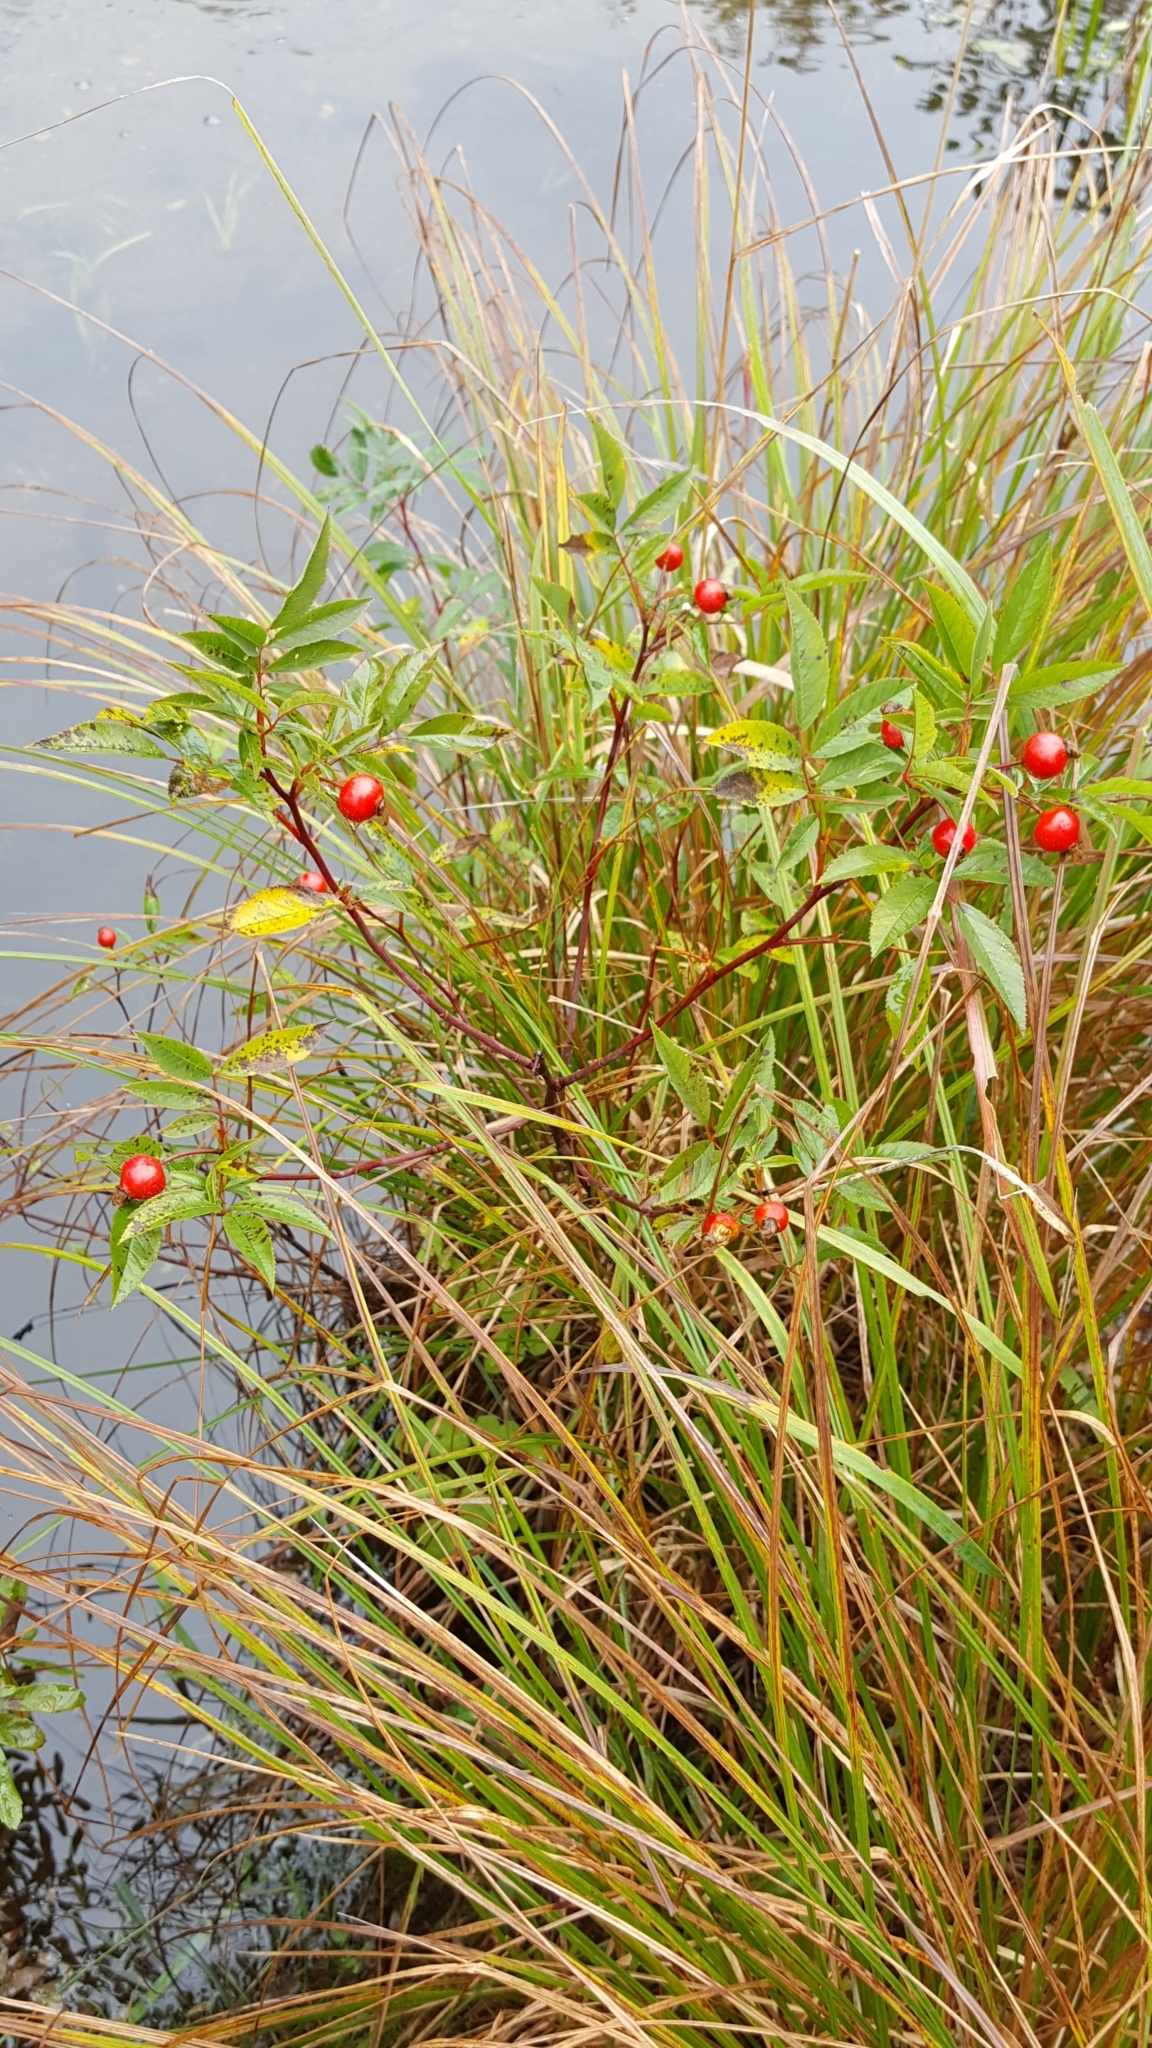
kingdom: Plantae
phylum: Tracheophyta
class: Magnoliopsida
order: Rosales
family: Rosaceae
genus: Rosa
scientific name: Rosa palustris
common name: Swamp rose
